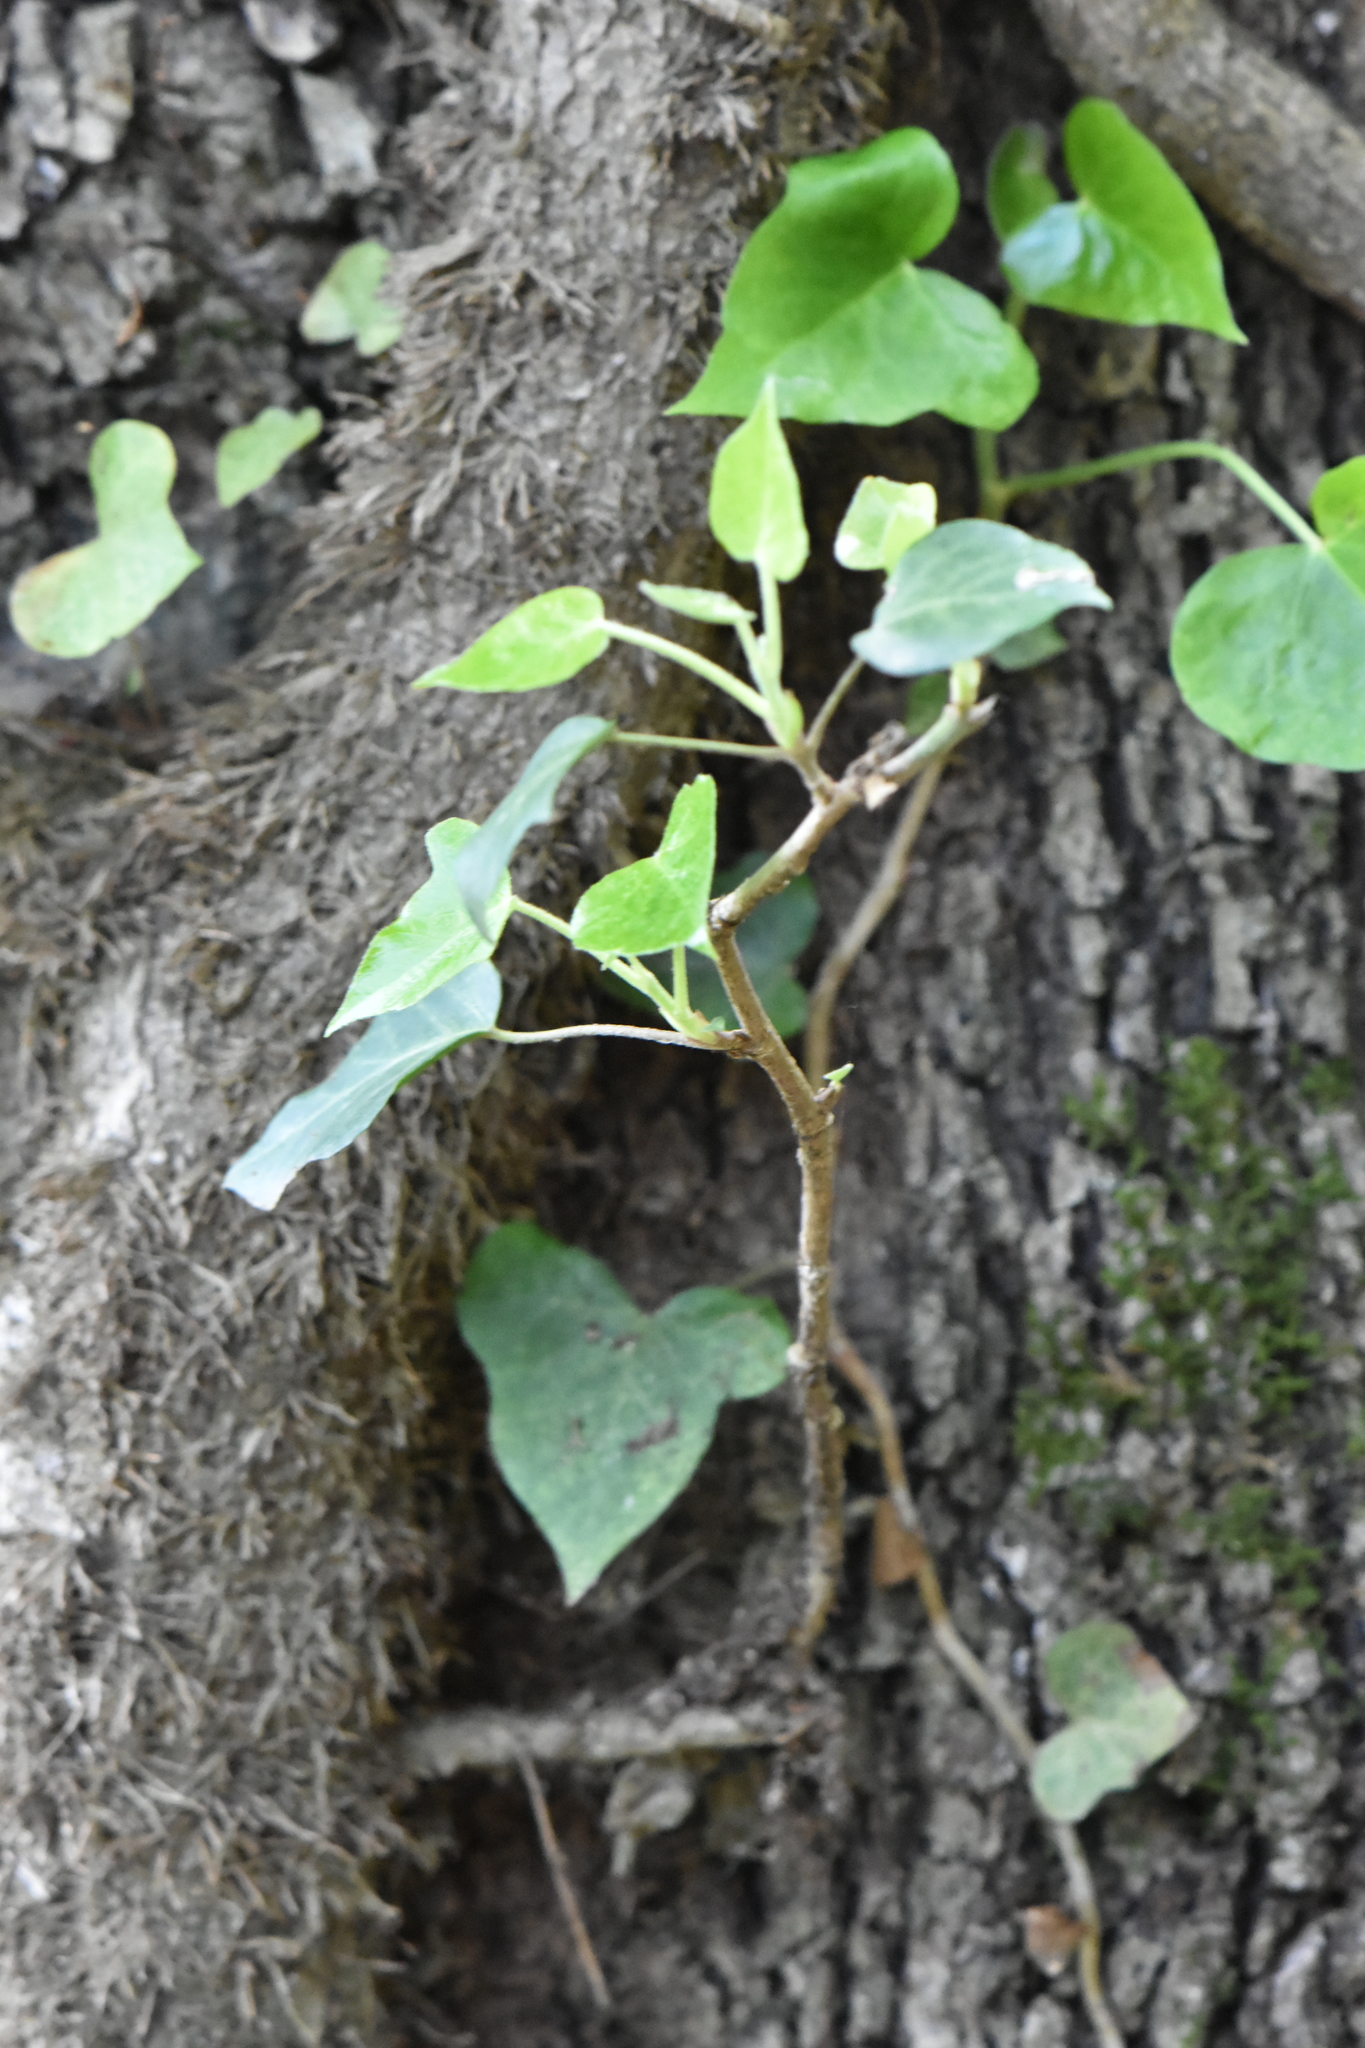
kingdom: Plantae
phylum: Tracheophyta
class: Magnoliopsida
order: Apiales
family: Araliaceae
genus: Hedera
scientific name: Hedera helix
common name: Ivy
